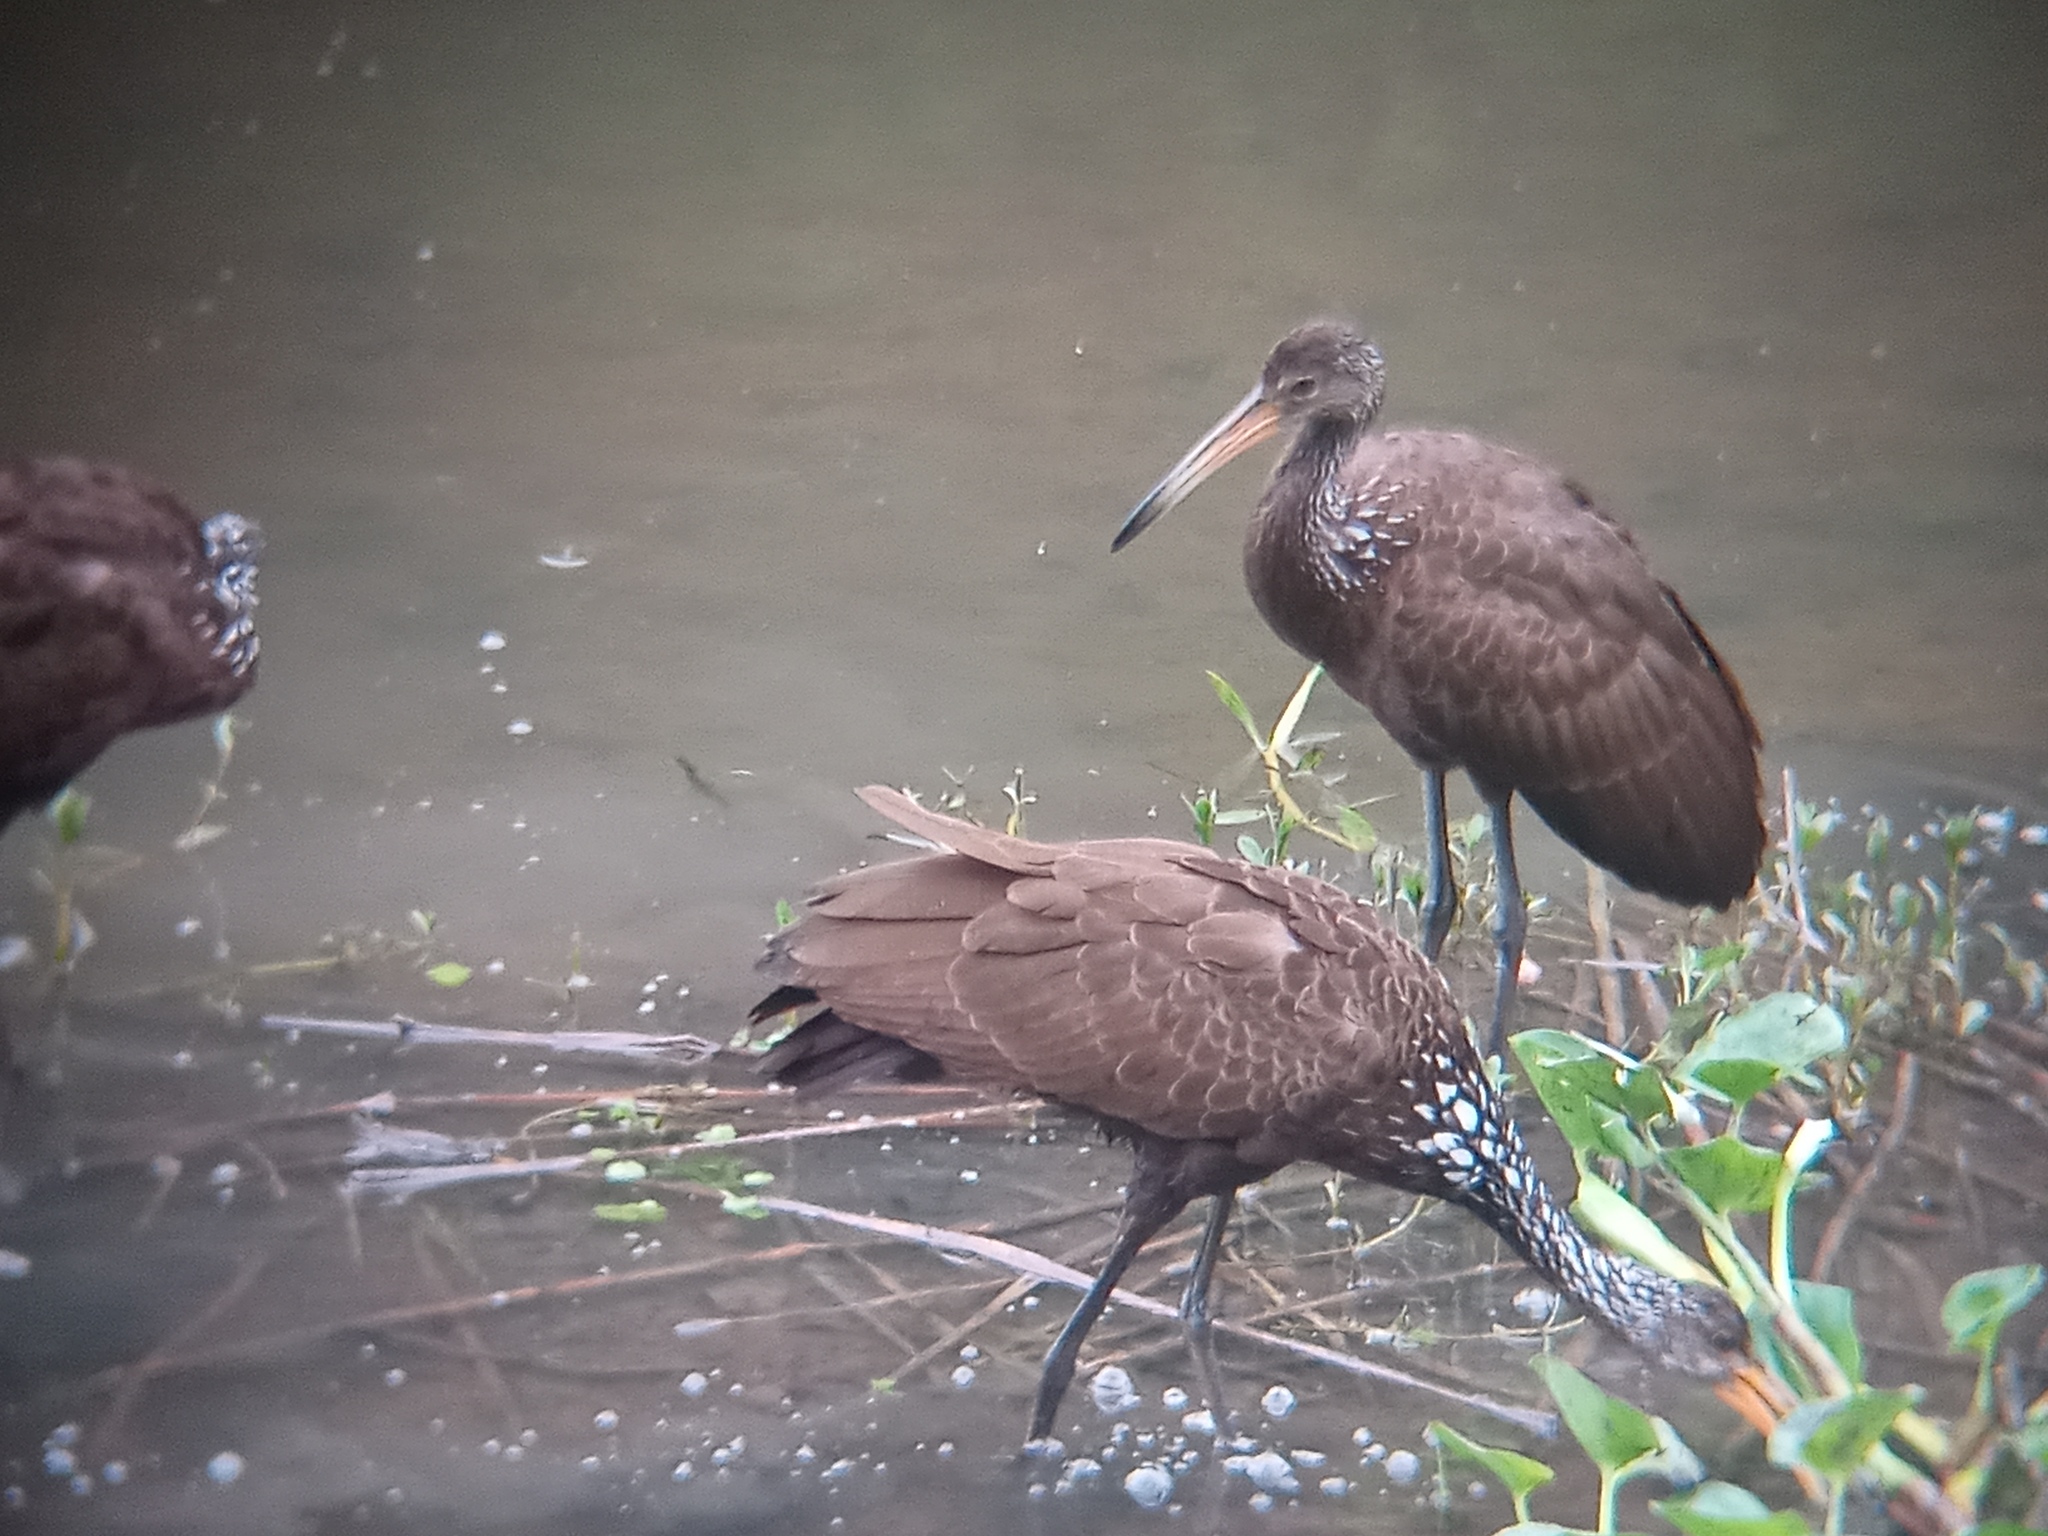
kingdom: Animalia
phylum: Chordata
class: Aves
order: Gruiformes
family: Aramidae
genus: Aramus
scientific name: Aramus guarauna
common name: Limpkin
